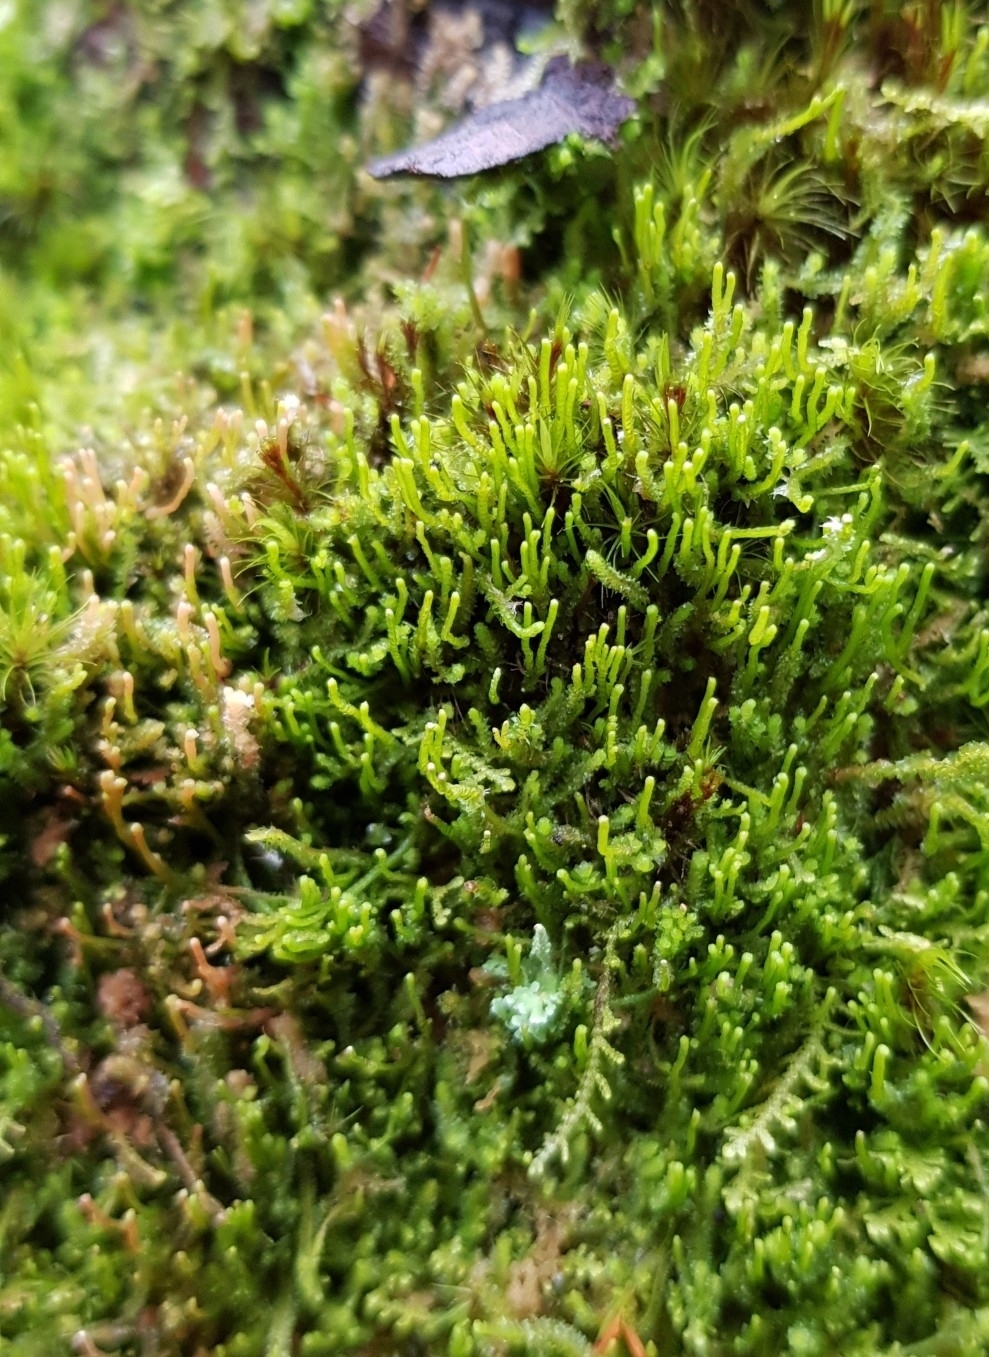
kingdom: Plantae
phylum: Marchantiophyta
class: Jungermanniopsida
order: Jungermanniales
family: Anastrophyllaceae
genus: Neoorthocaulis
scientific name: Neoorthocaulis attenuatus
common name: Trunk pawwort
